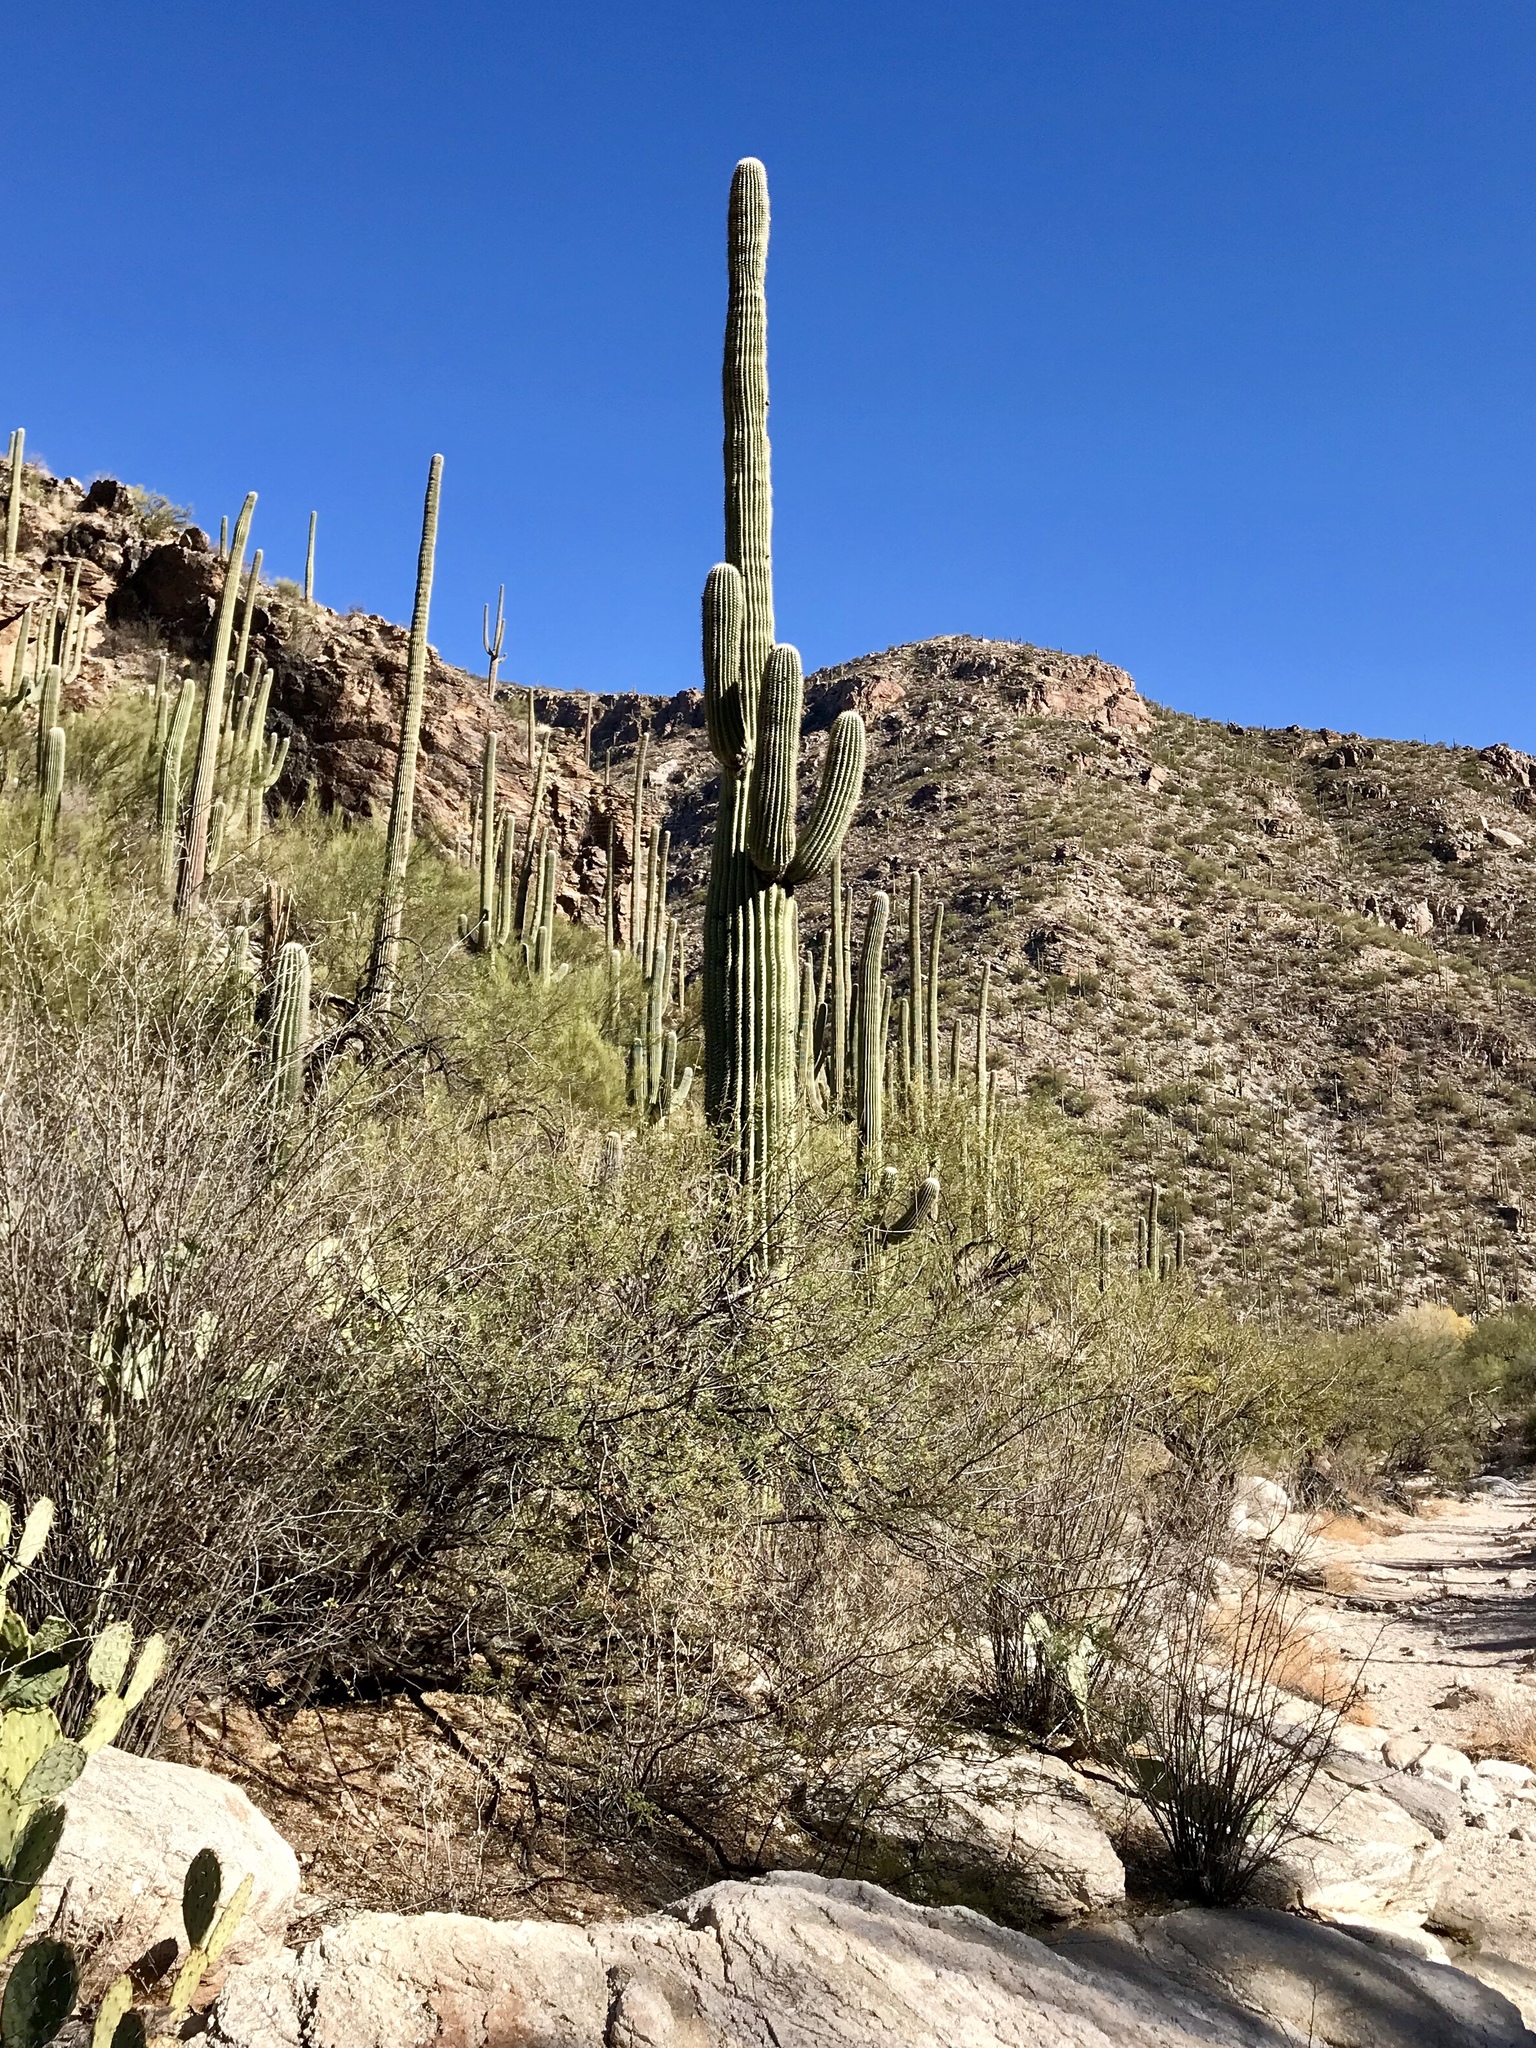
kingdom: Plantae
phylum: Tracheophyta
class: Magnoliopsida
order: Caryophyllales
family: Cactaceae
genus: Carnegiea
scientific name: Carnegiea gigantea
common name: Saguaro
